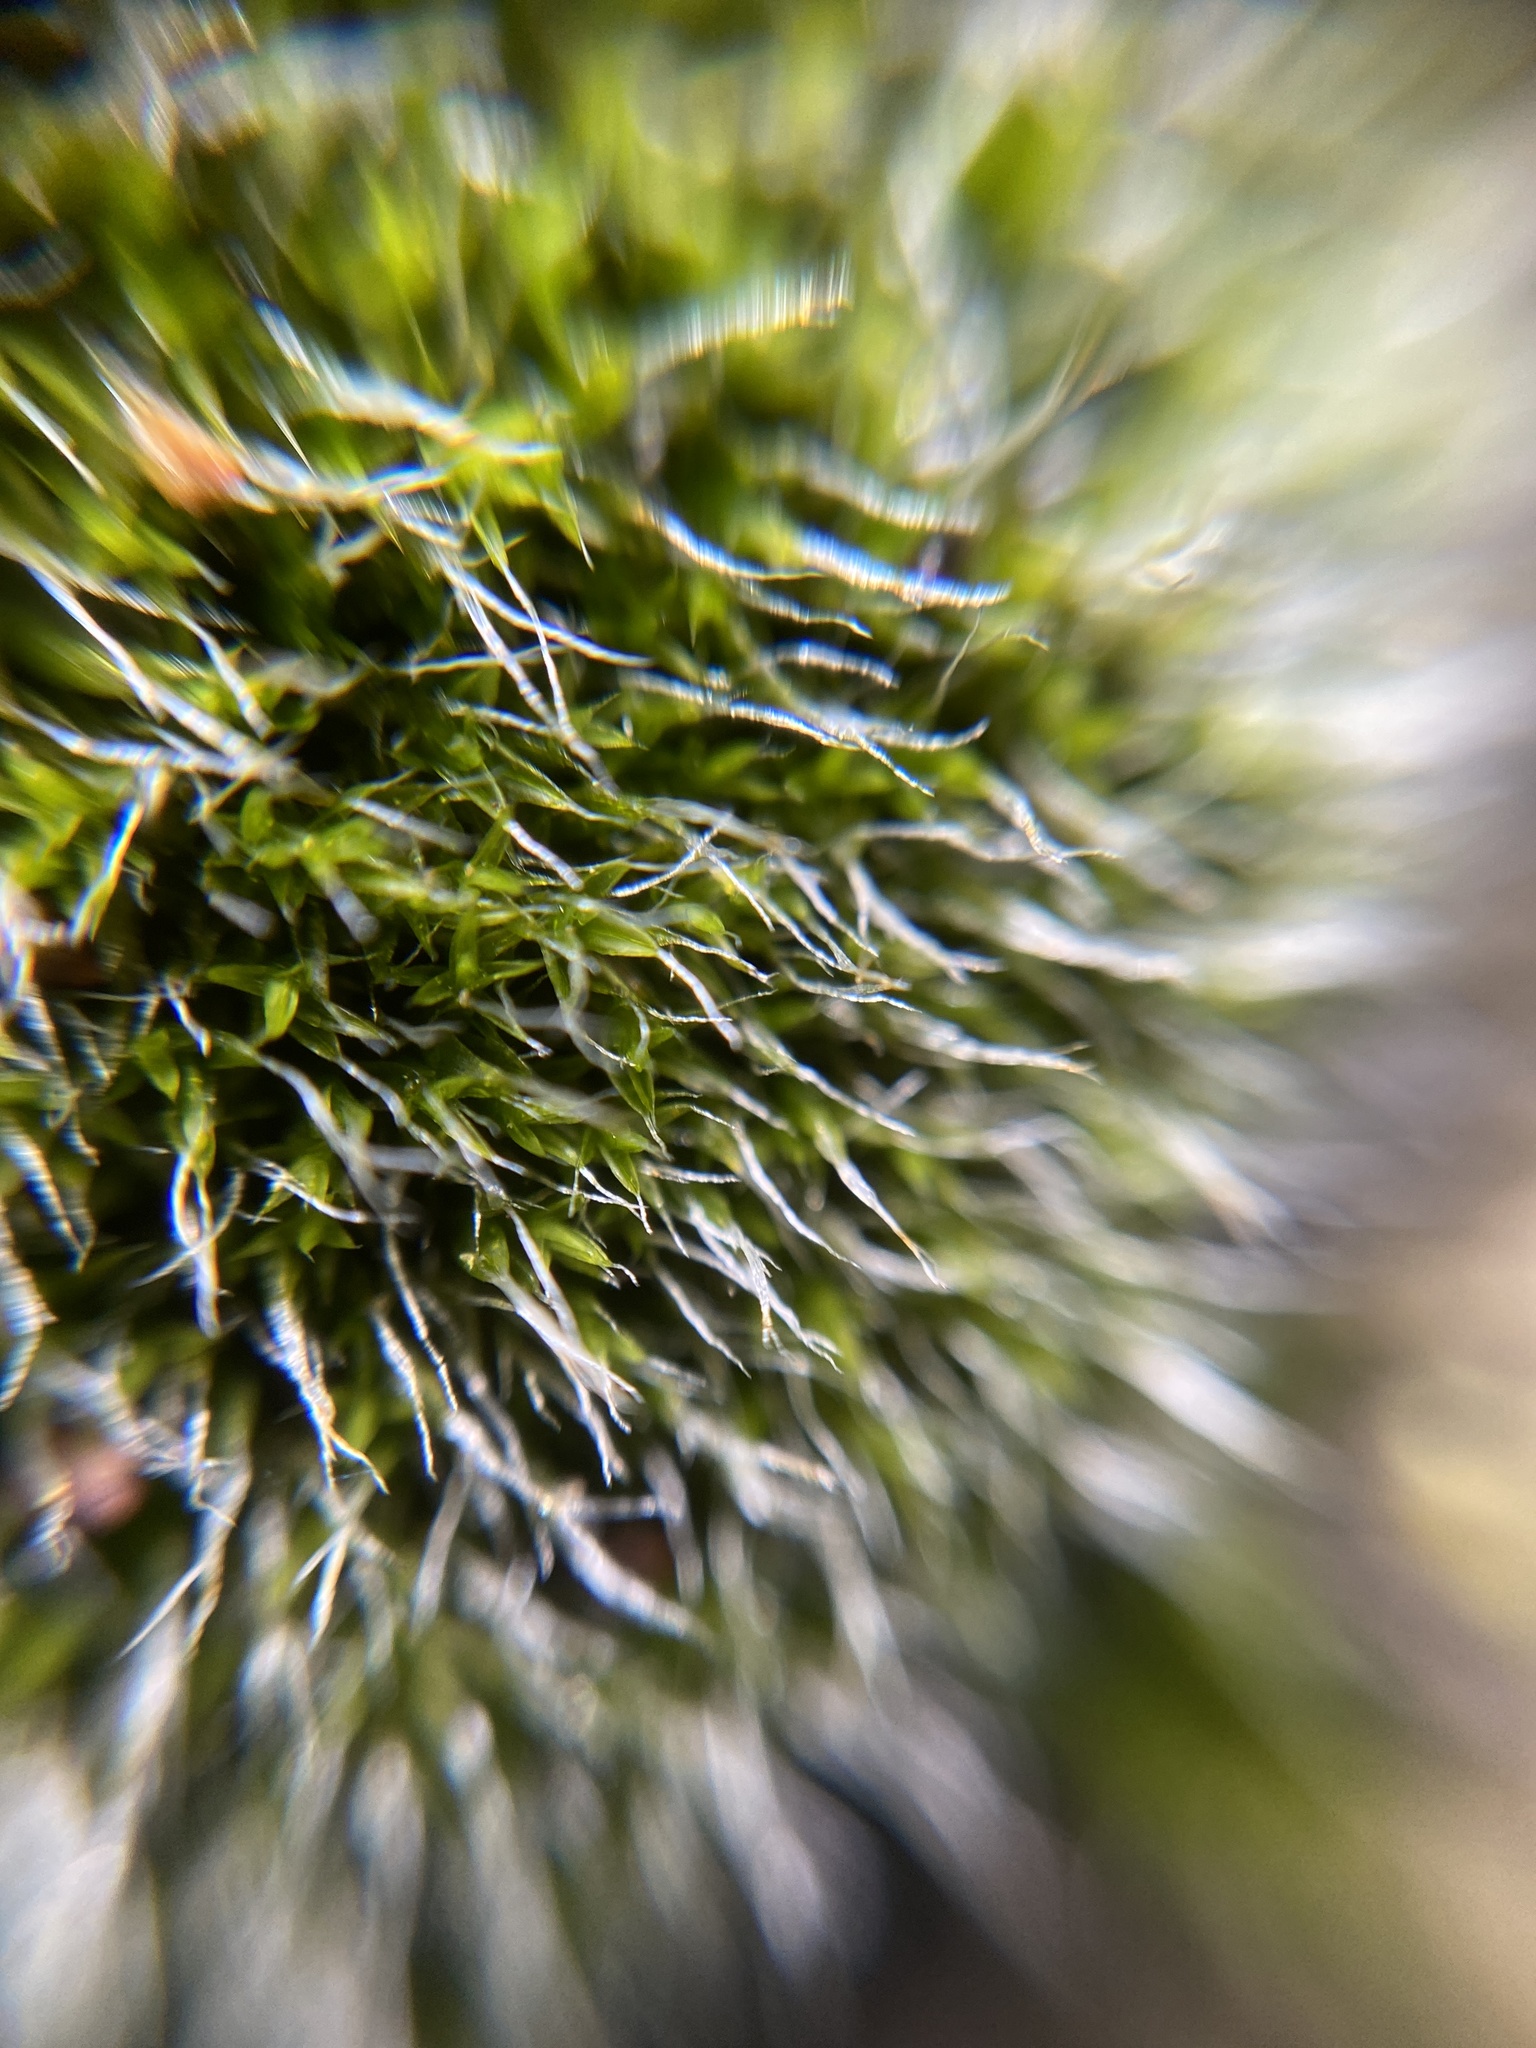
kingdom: Plantae
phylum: Bryophyta
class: Bryopsida
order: Grimmiales
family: Grimmiaceae
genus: Grimmia
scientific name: Grimmia pulvinata
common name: Grey-cushioned grimmia
